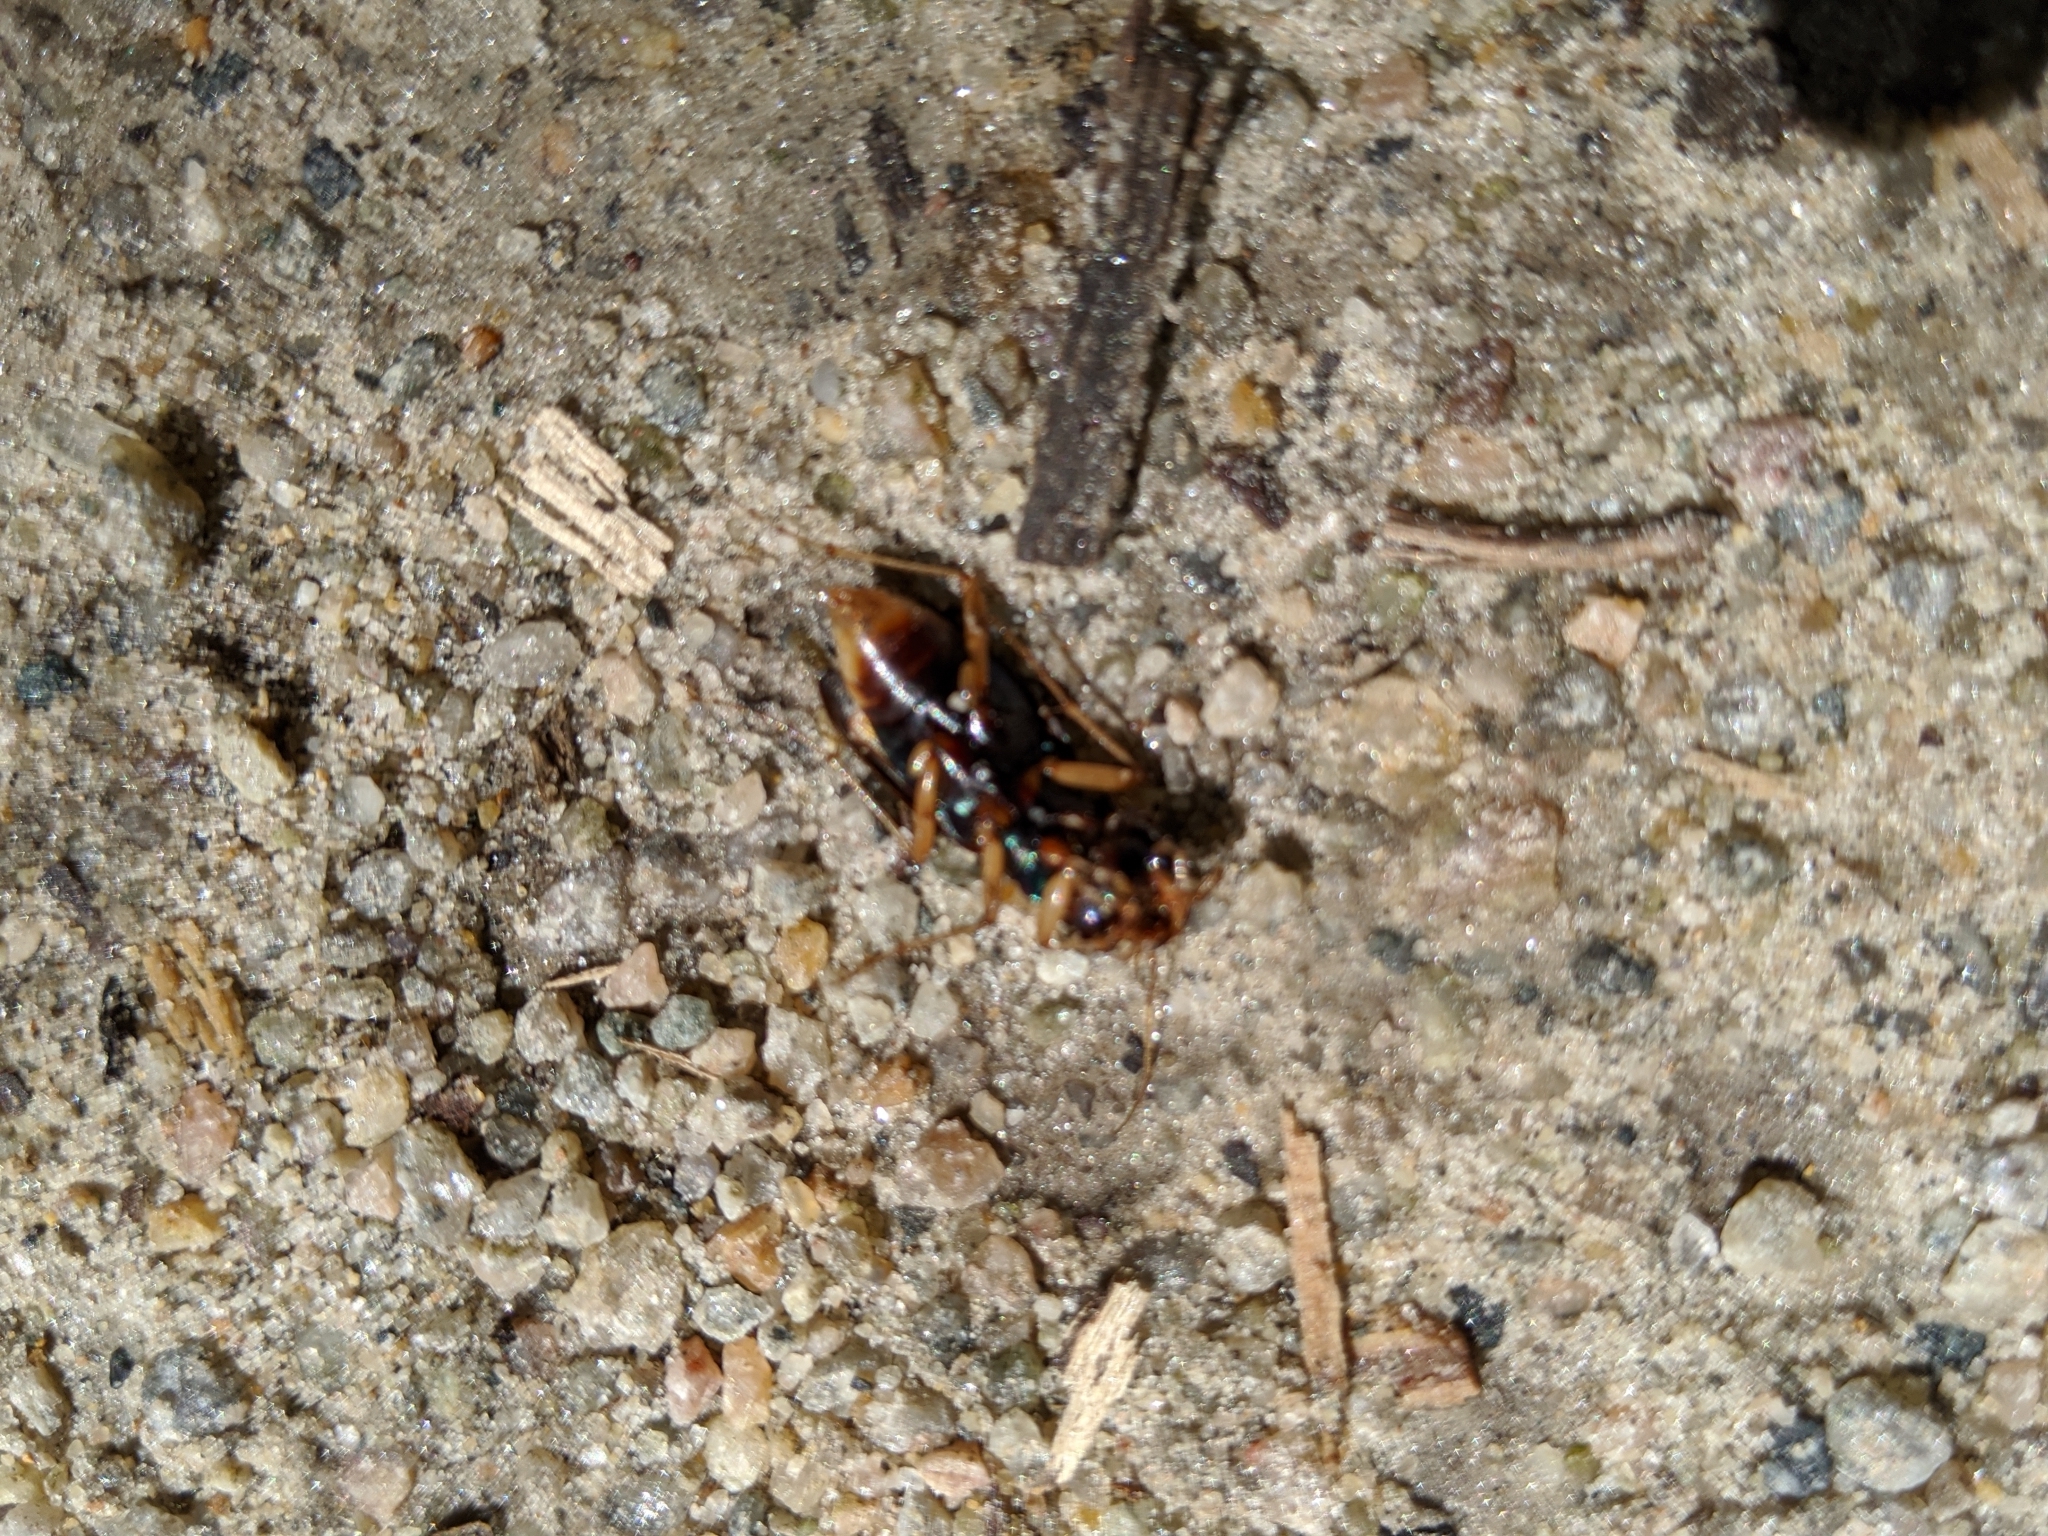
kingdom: Animalia
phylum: Arthropoda
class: Insecta
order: Coleoptera
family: Carabidae
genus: Tetracha
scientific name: Tetracha virginica
